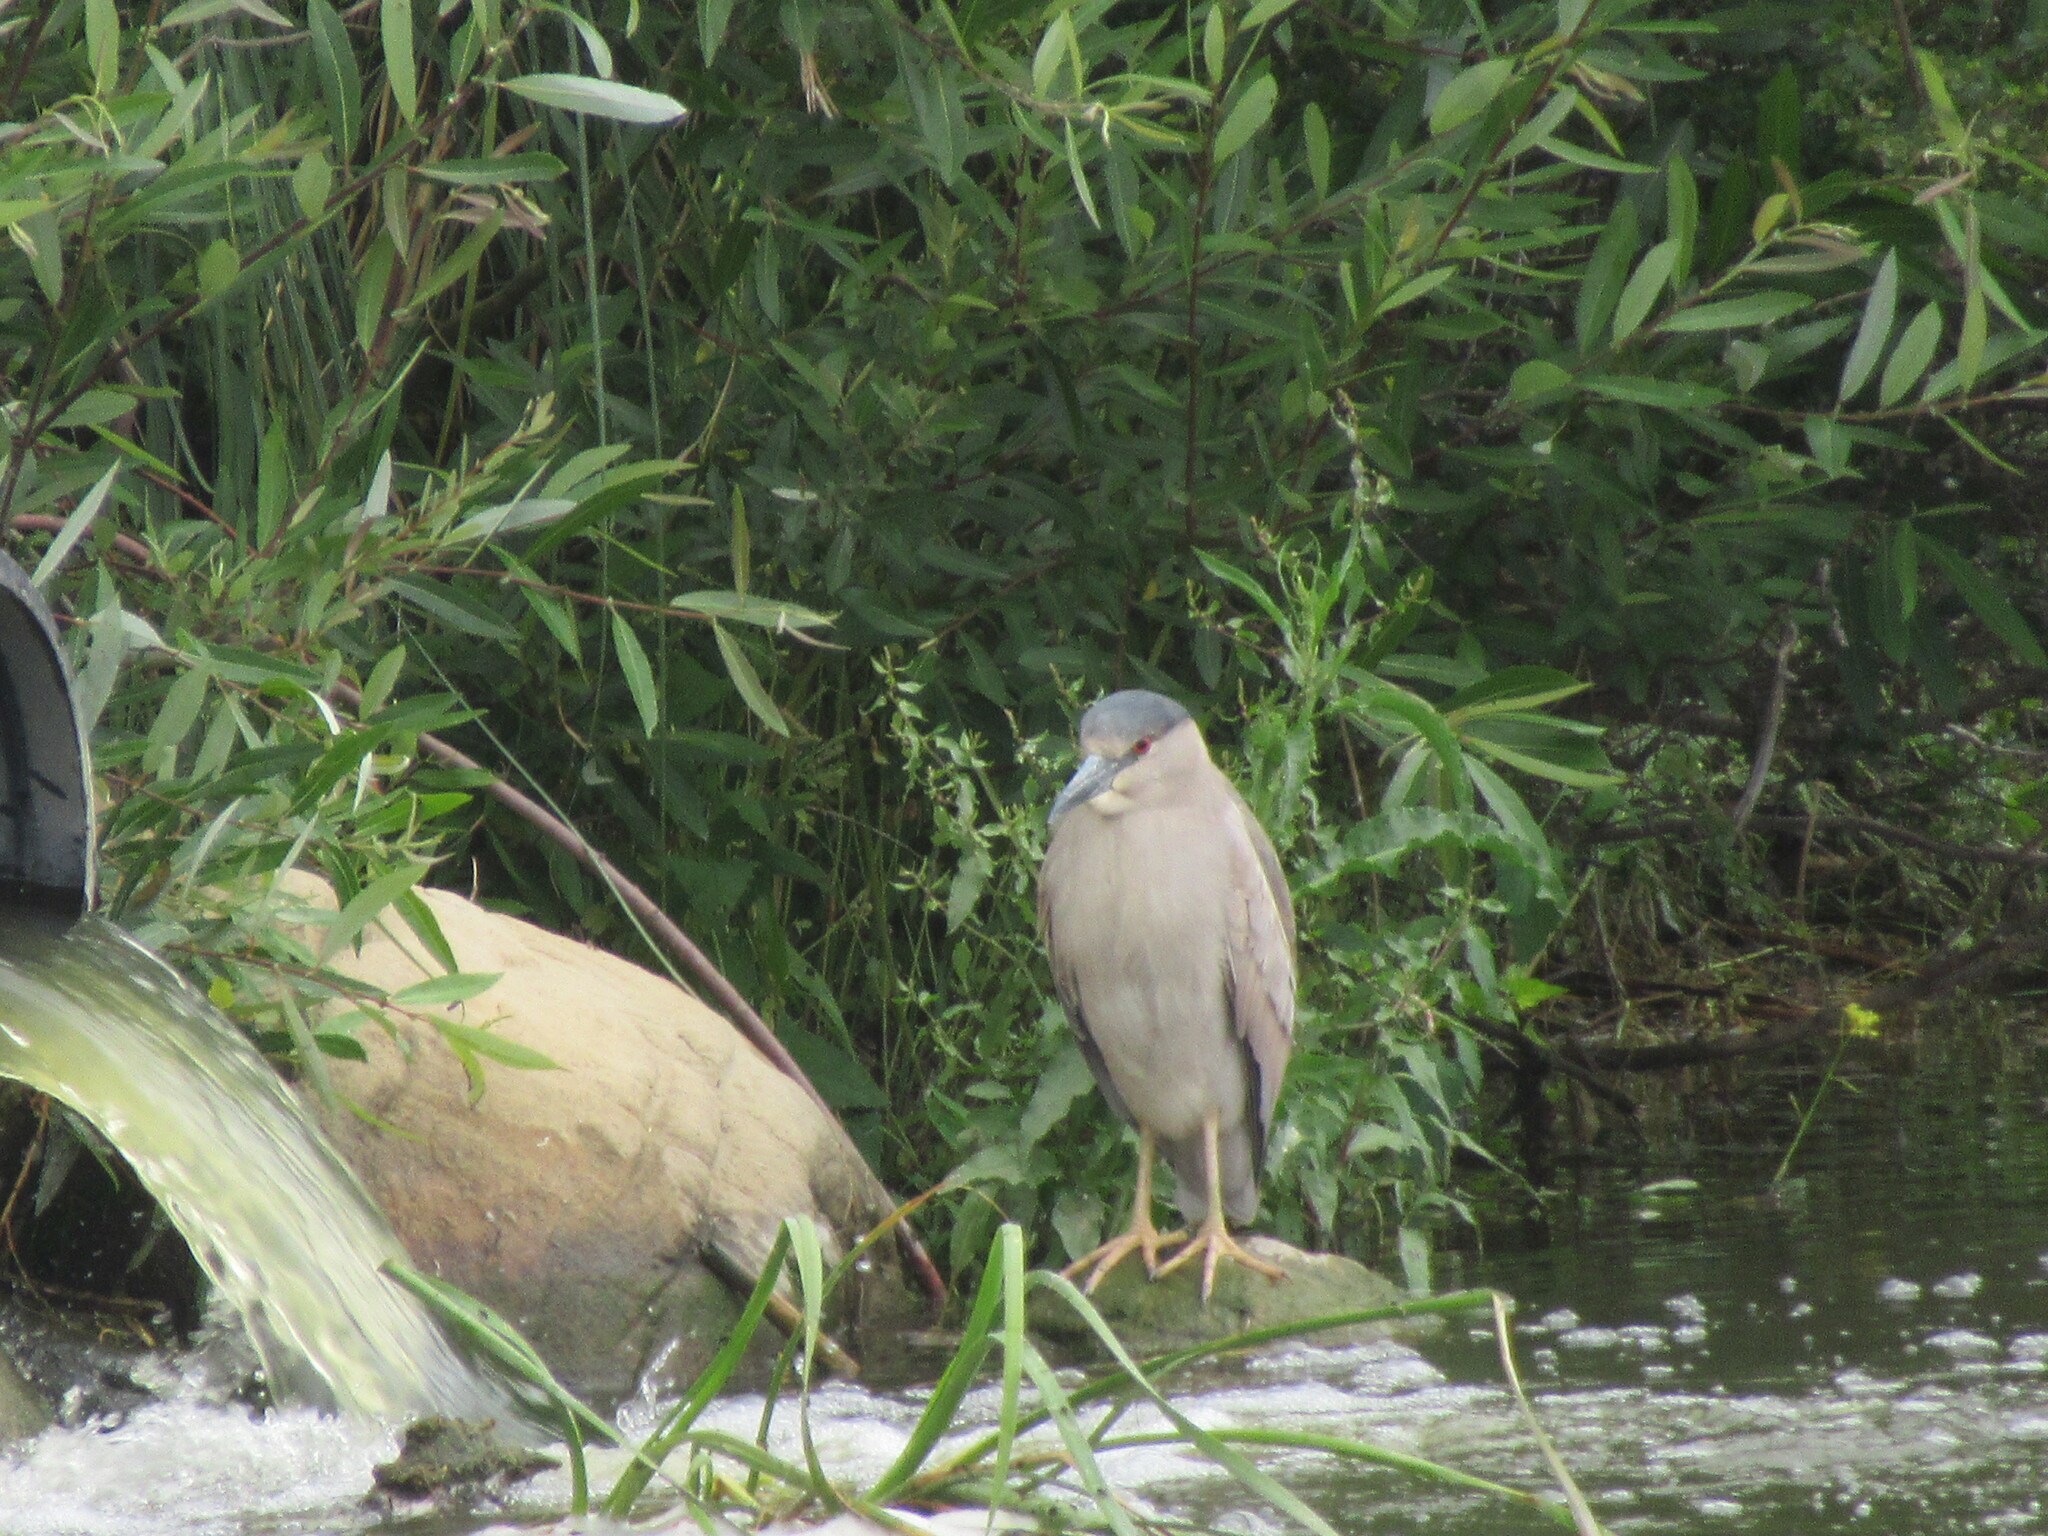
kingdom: Animalia
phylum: Chordata
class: Aves
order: Pelecaniformes
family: Ardeidae
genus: Nycticorax
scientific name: Nycticorax nycticorax
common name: Black-crowned night heron
